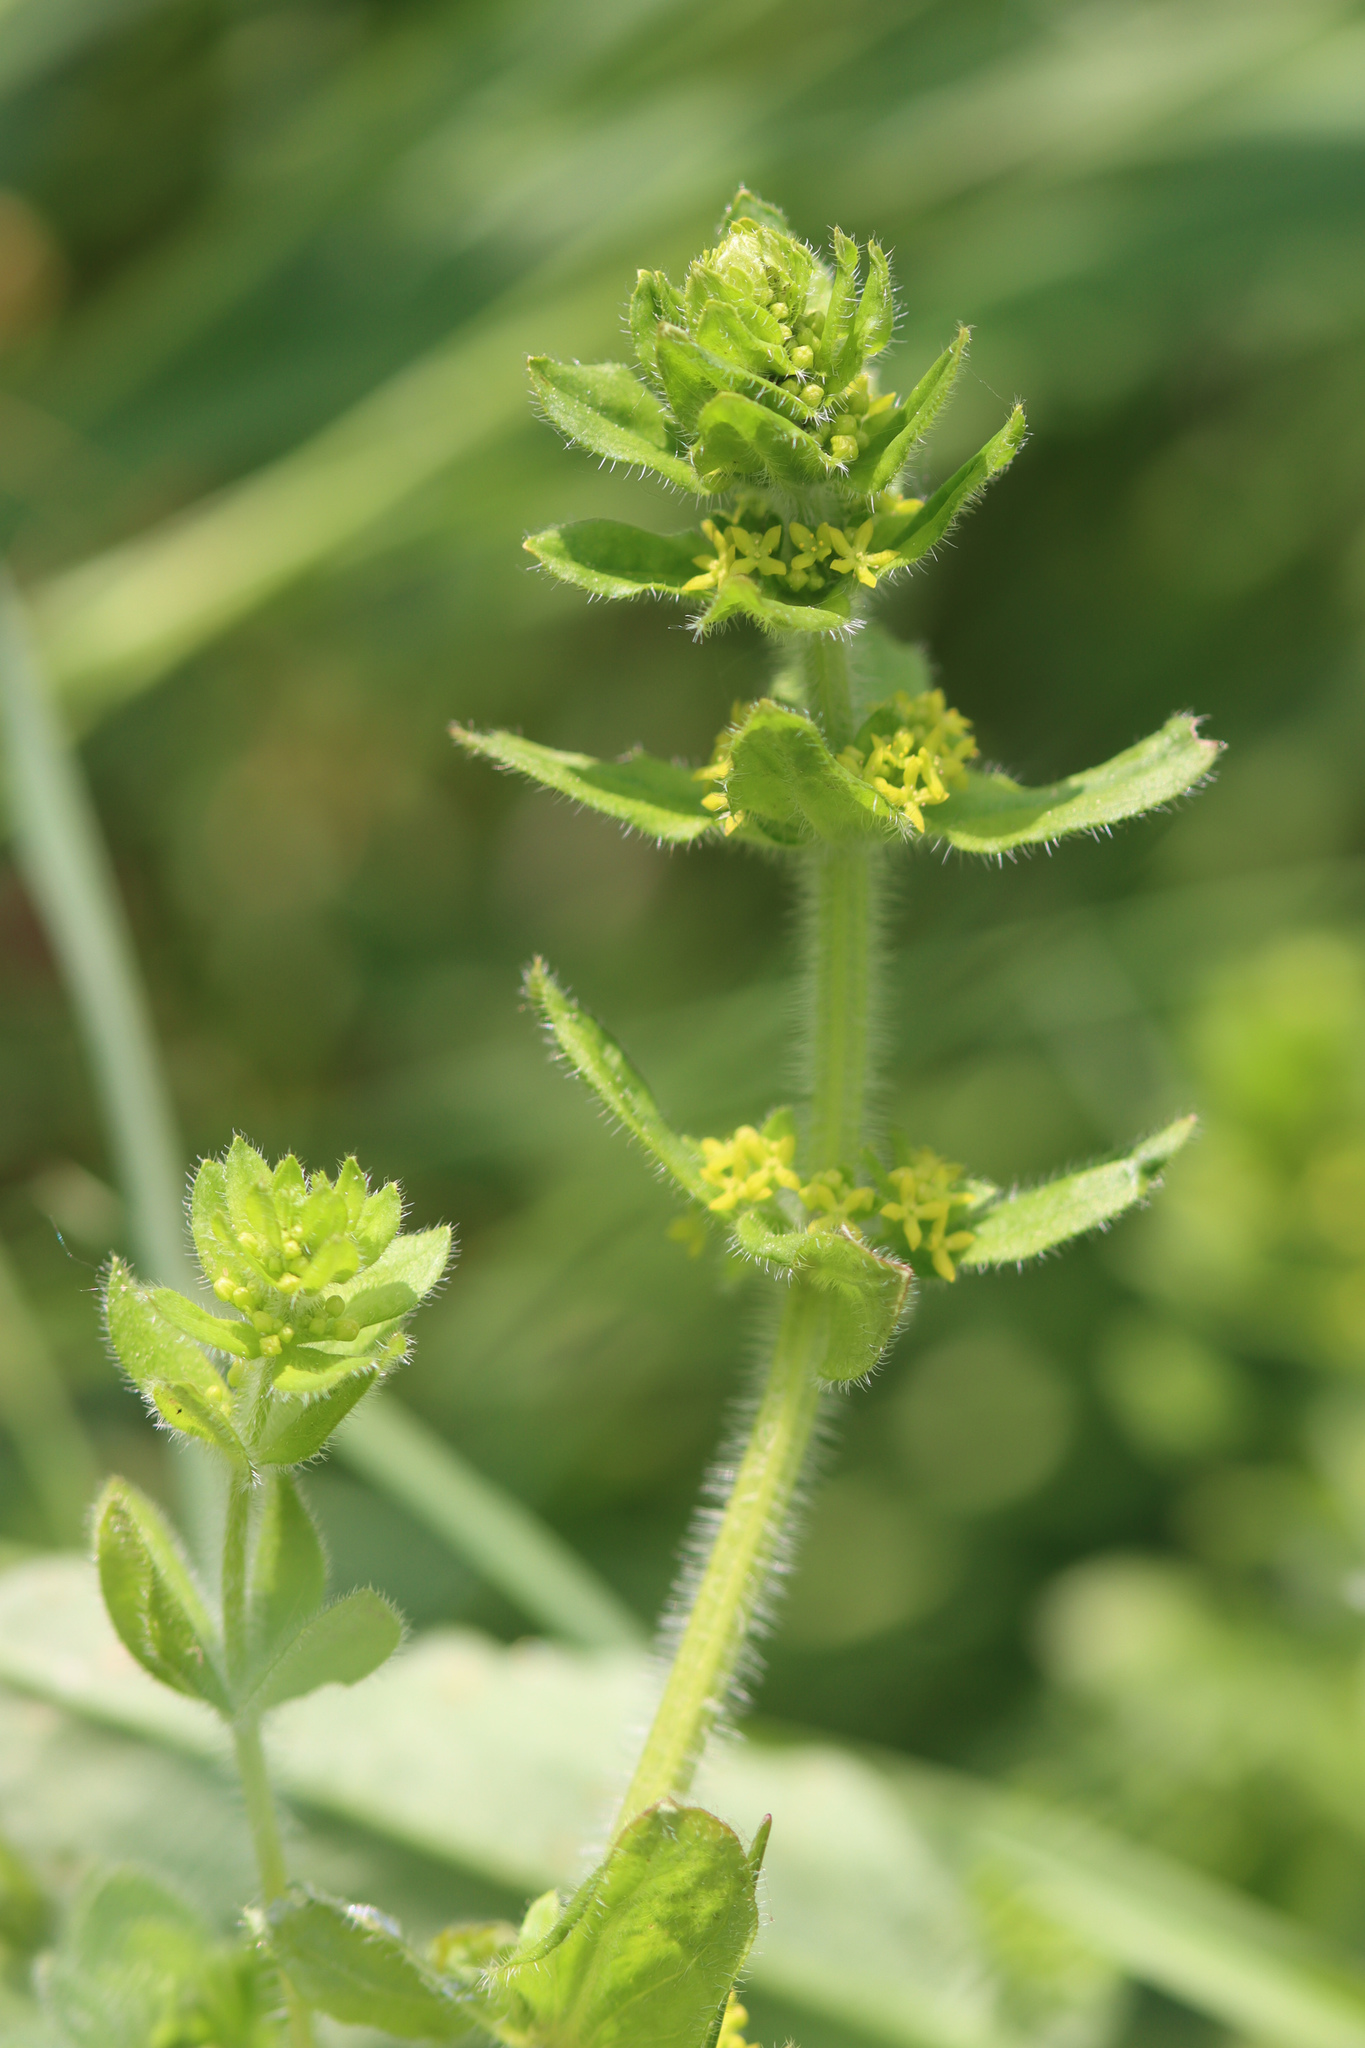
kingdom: Plantae
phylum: Tracheophyta
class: Magnoliopsida
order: Gentianales
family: Rubiaceae
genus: Cruciata
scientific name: Cruciata laevipes
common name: Crosswort
